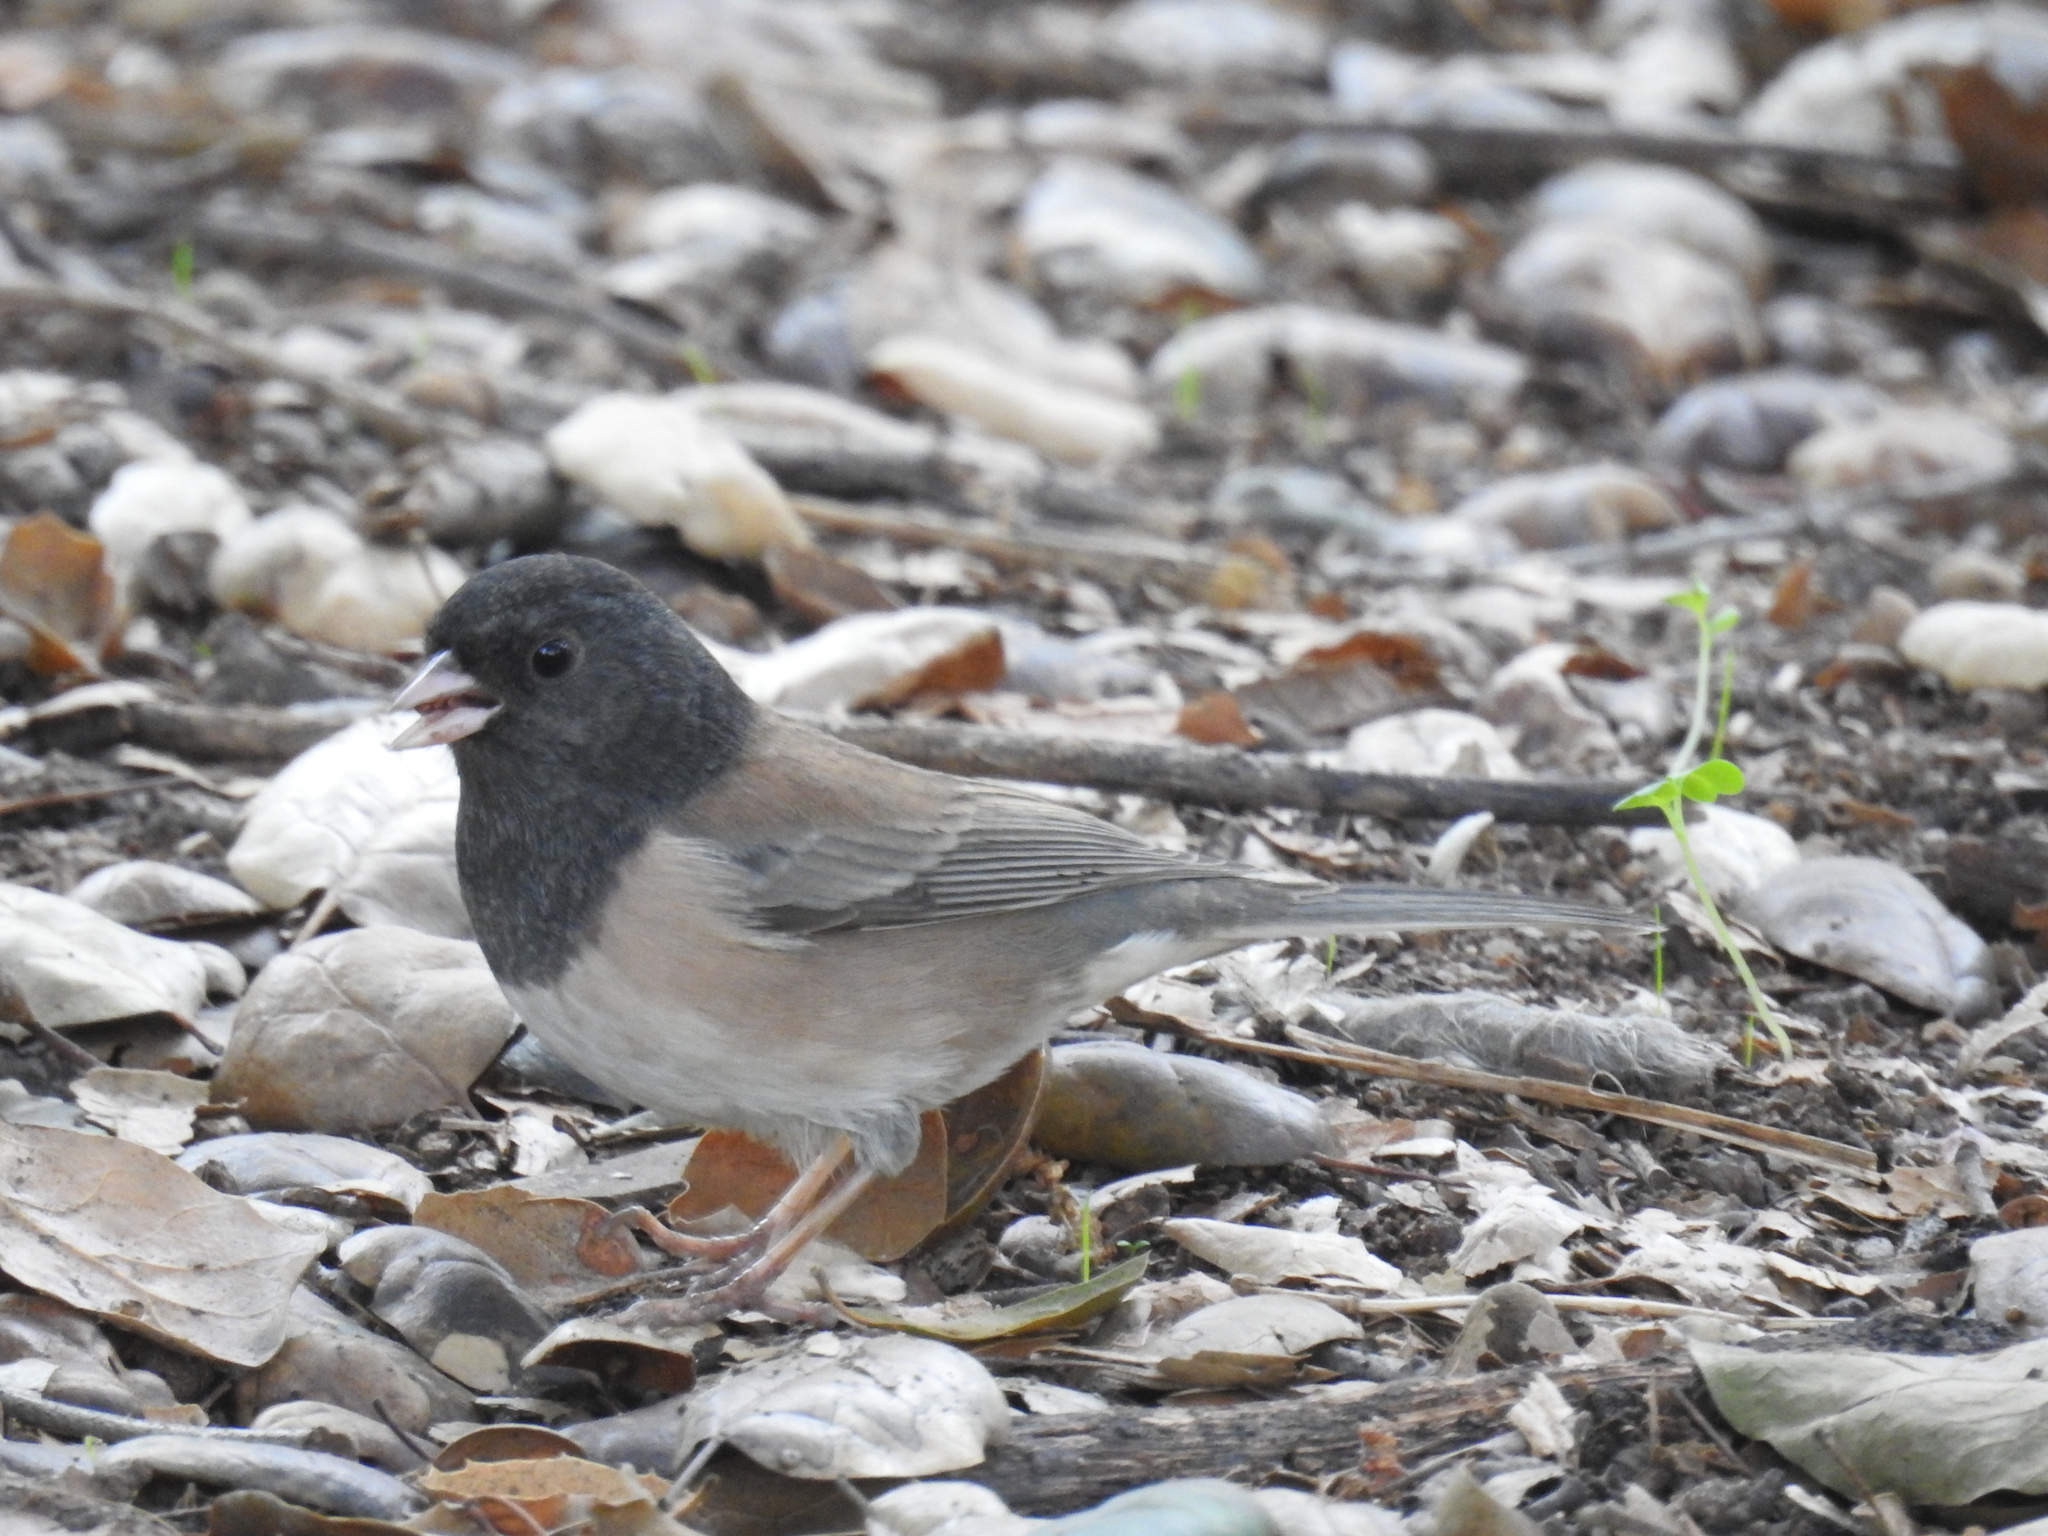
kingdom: Animalia
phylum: Chordata
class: Aves
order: Passeriformes
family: Passerellidae
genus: Junco
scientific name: Junco hyemalis
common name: Dark-eyed junco
